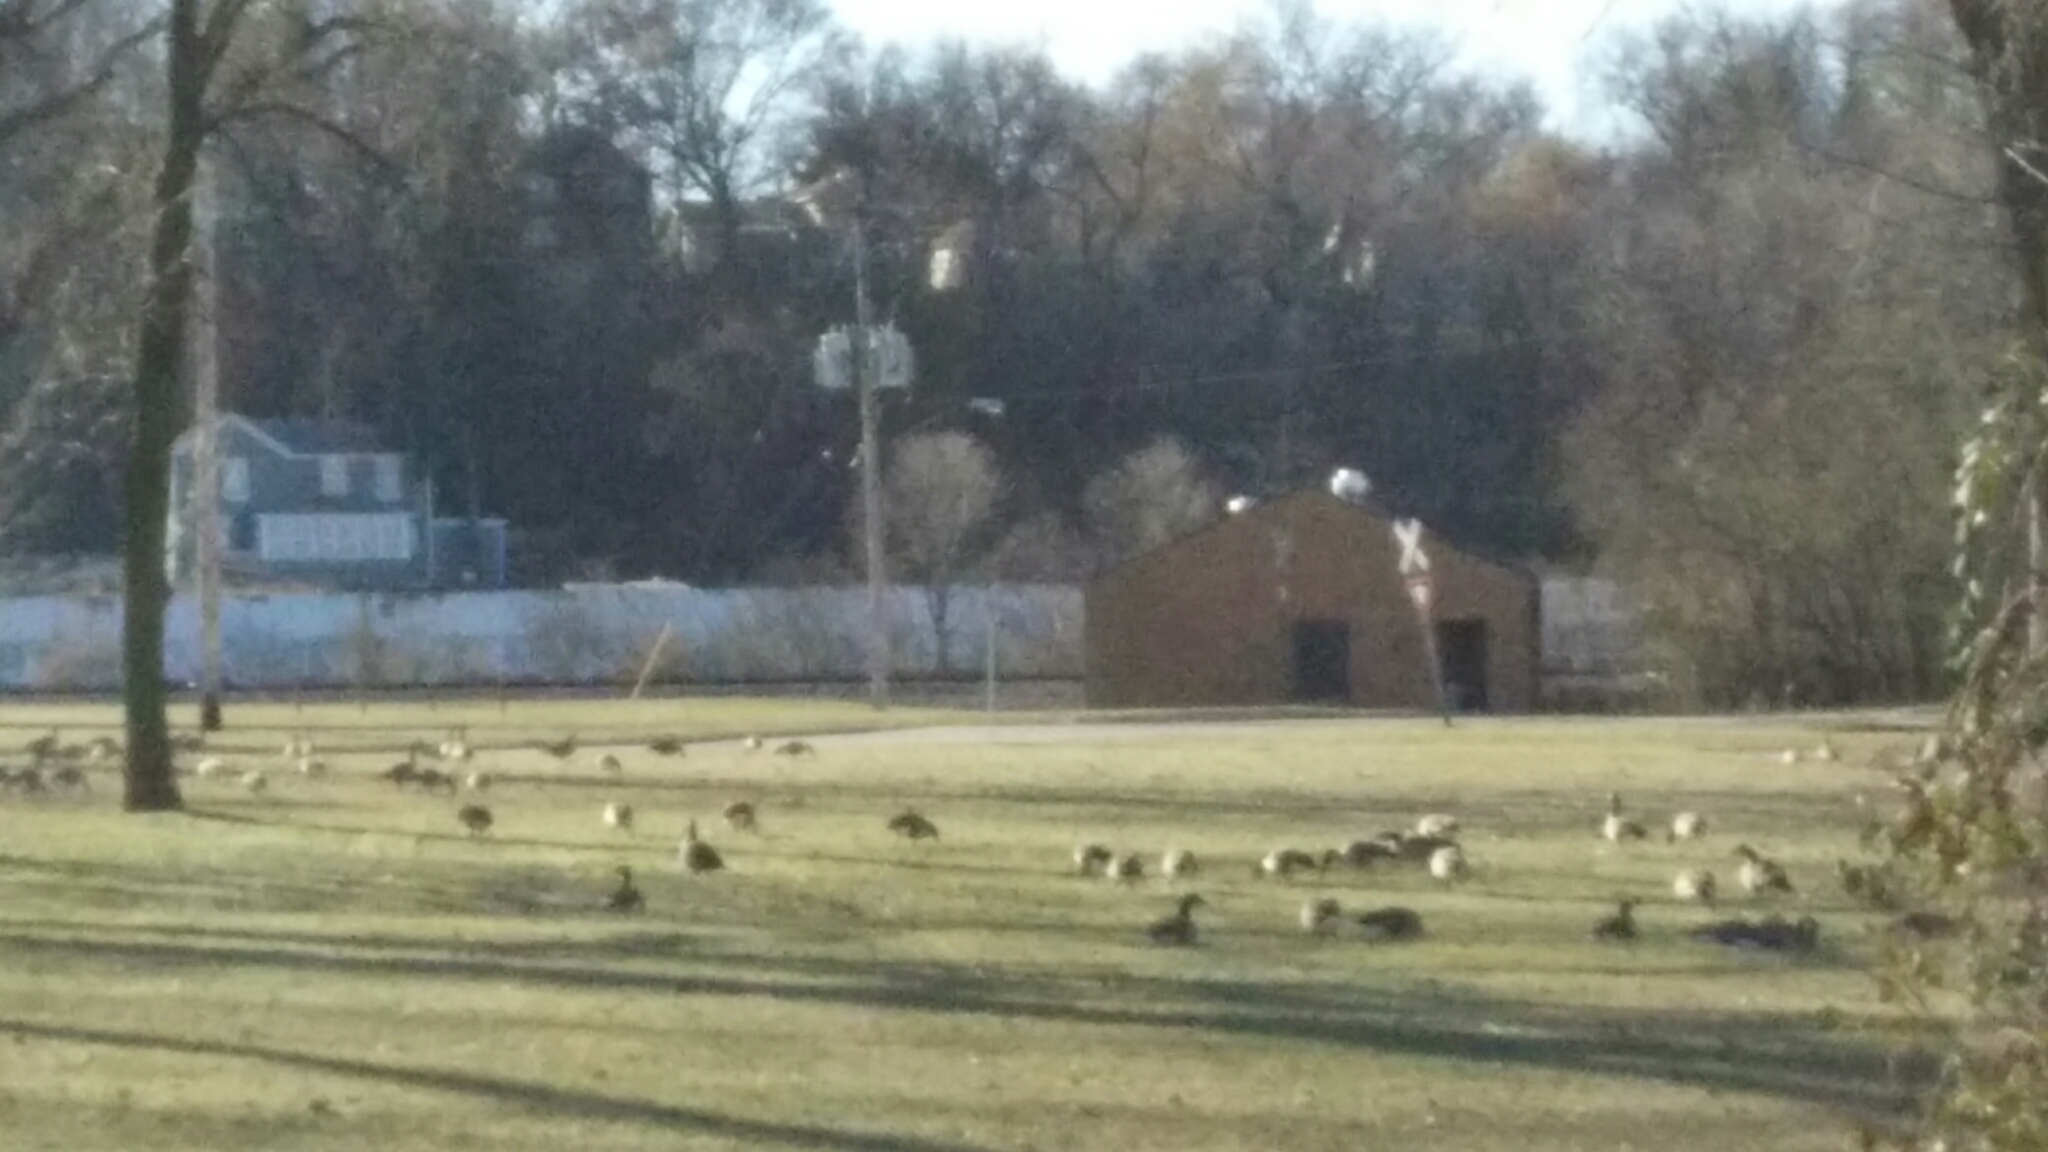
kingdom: Animalia
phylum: Chordata
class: Aves
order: Anseriformes
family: Anatidae
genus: Branta
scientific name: Branta canadensis
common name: Canada goose
